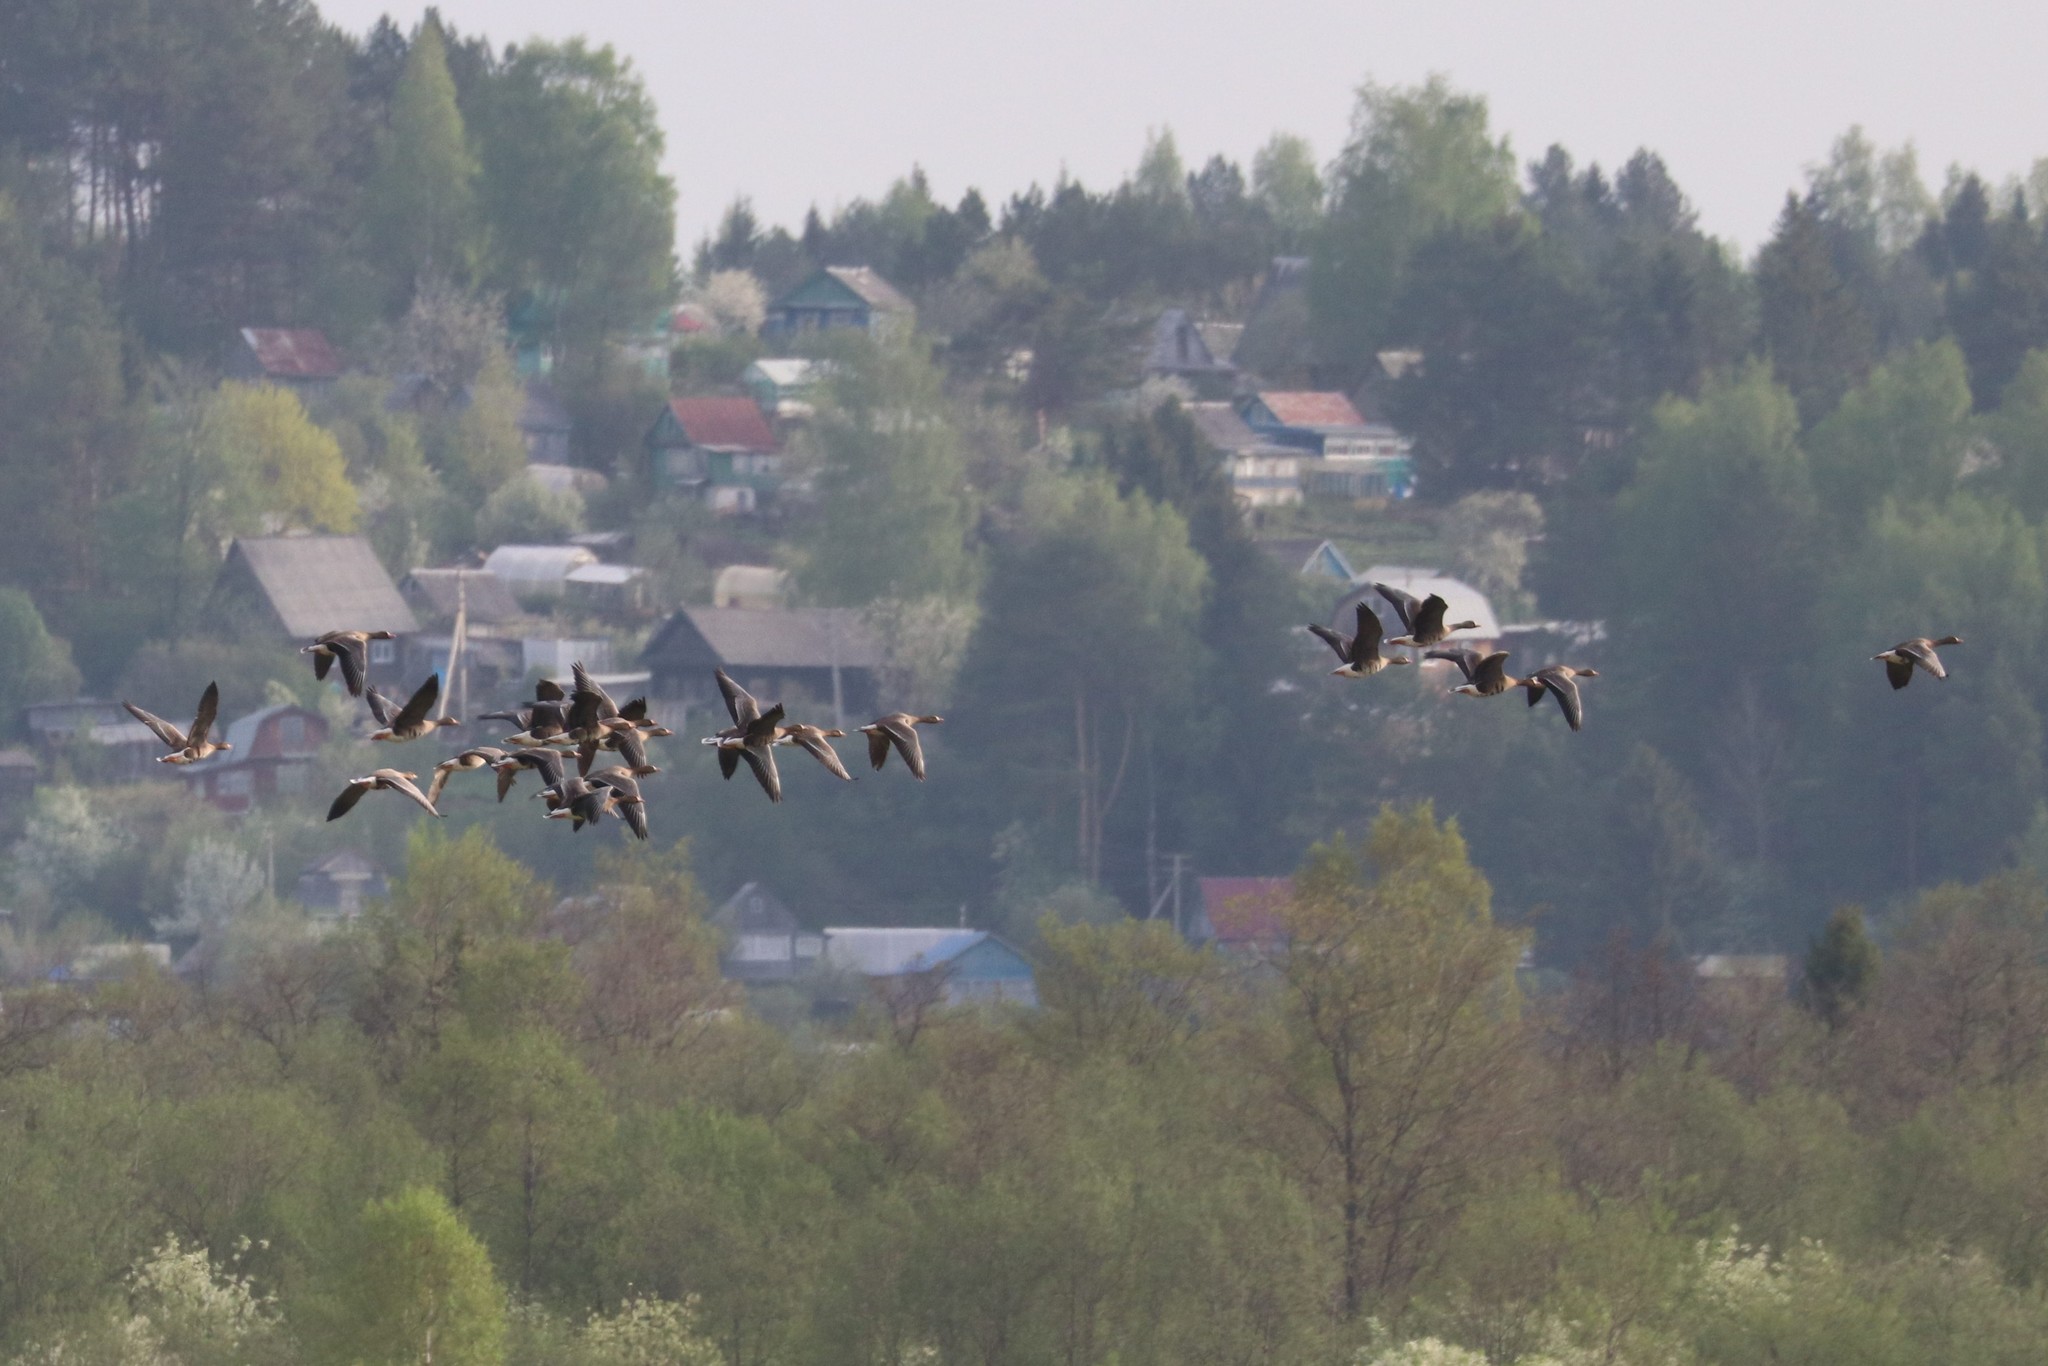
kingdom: Animalia
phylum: Chordata
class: Aves
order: Anseriformes
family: Anatidae
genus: Anser
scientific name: Anser albifrons
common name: Greater white-fronted goose
